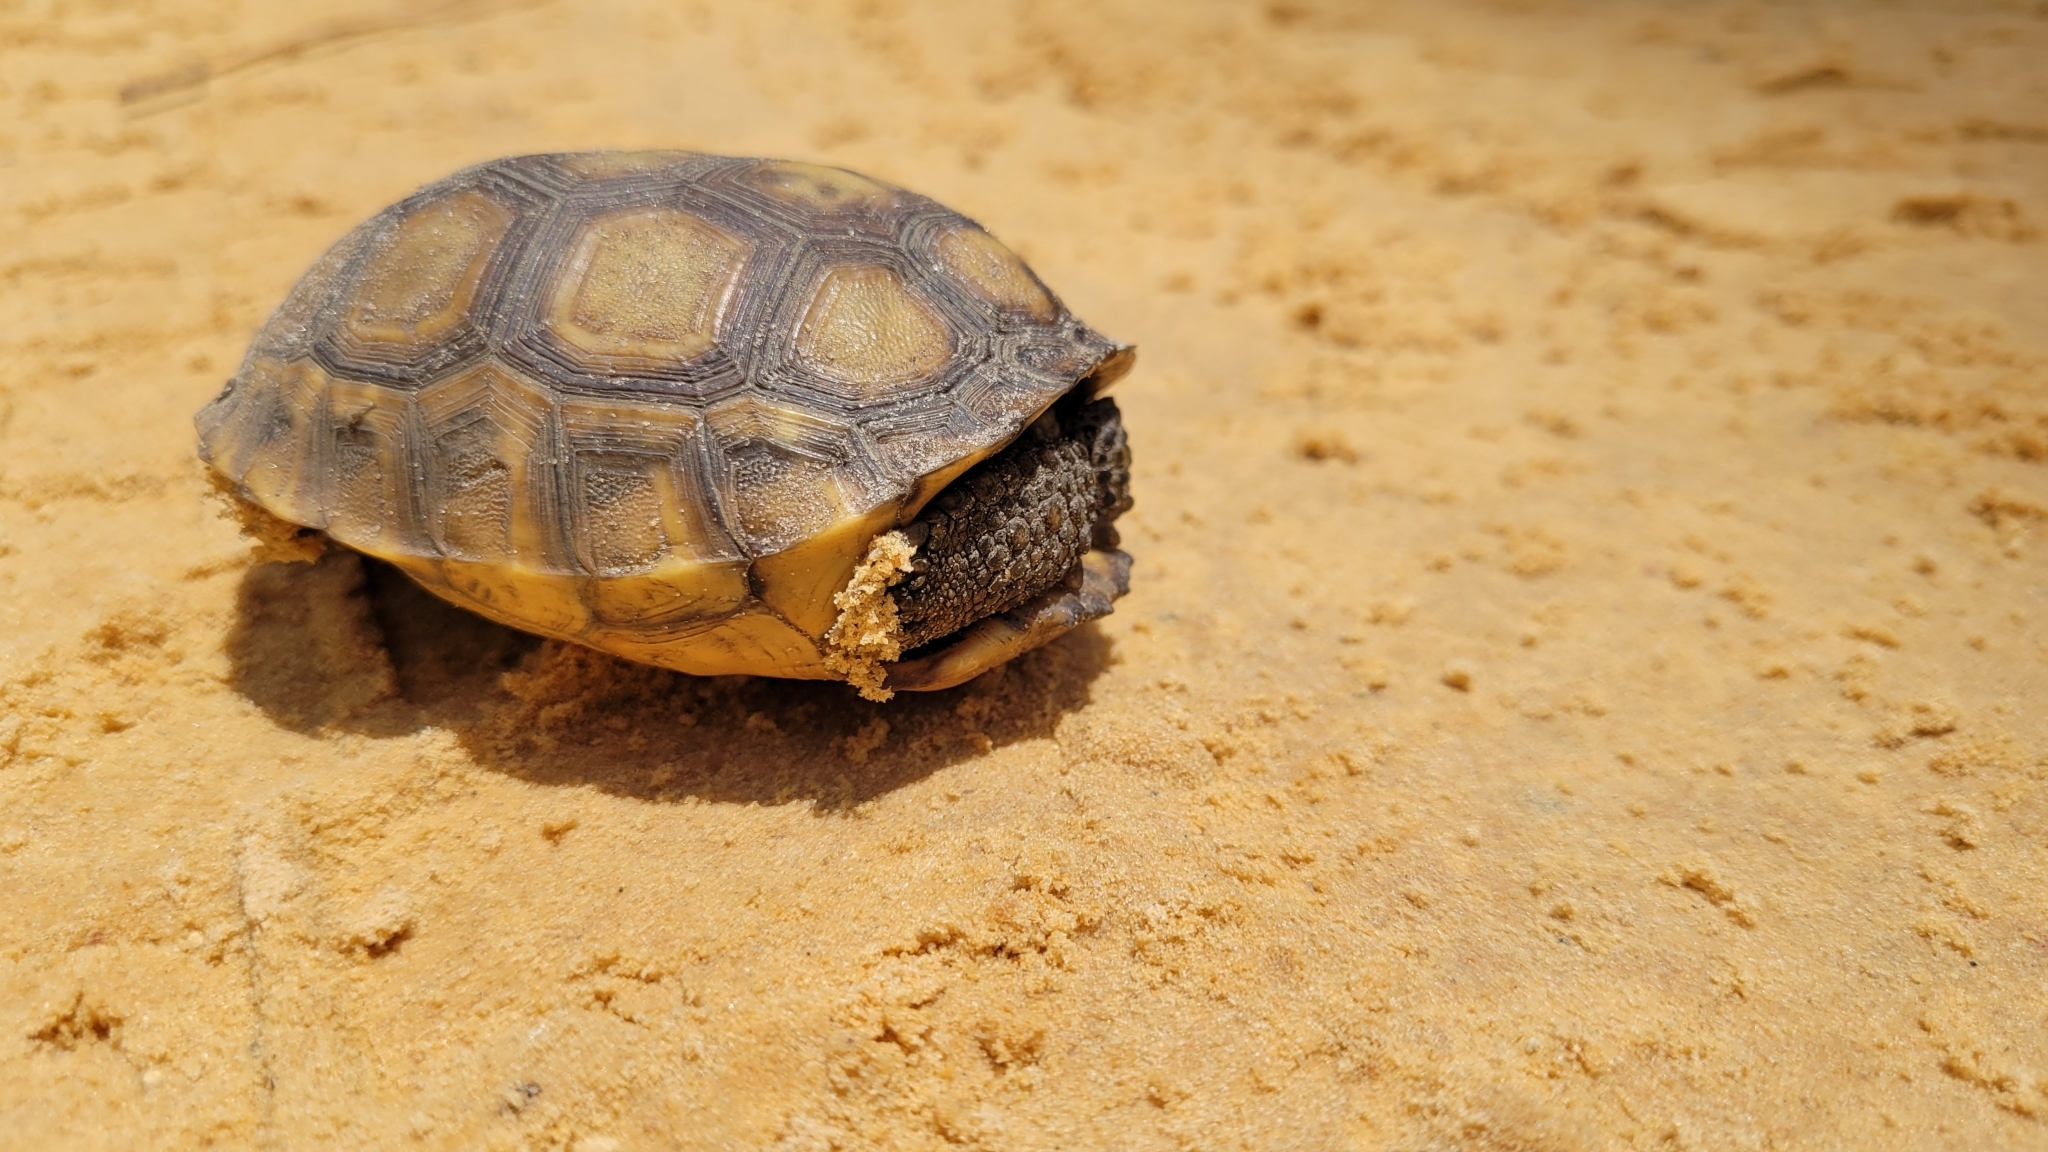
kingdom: Animalia
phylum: Chordata
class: Testudines
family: Testudinidae
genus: Gopherus
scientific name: Gopherus polyphemus
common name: Florida gopher tortoise
